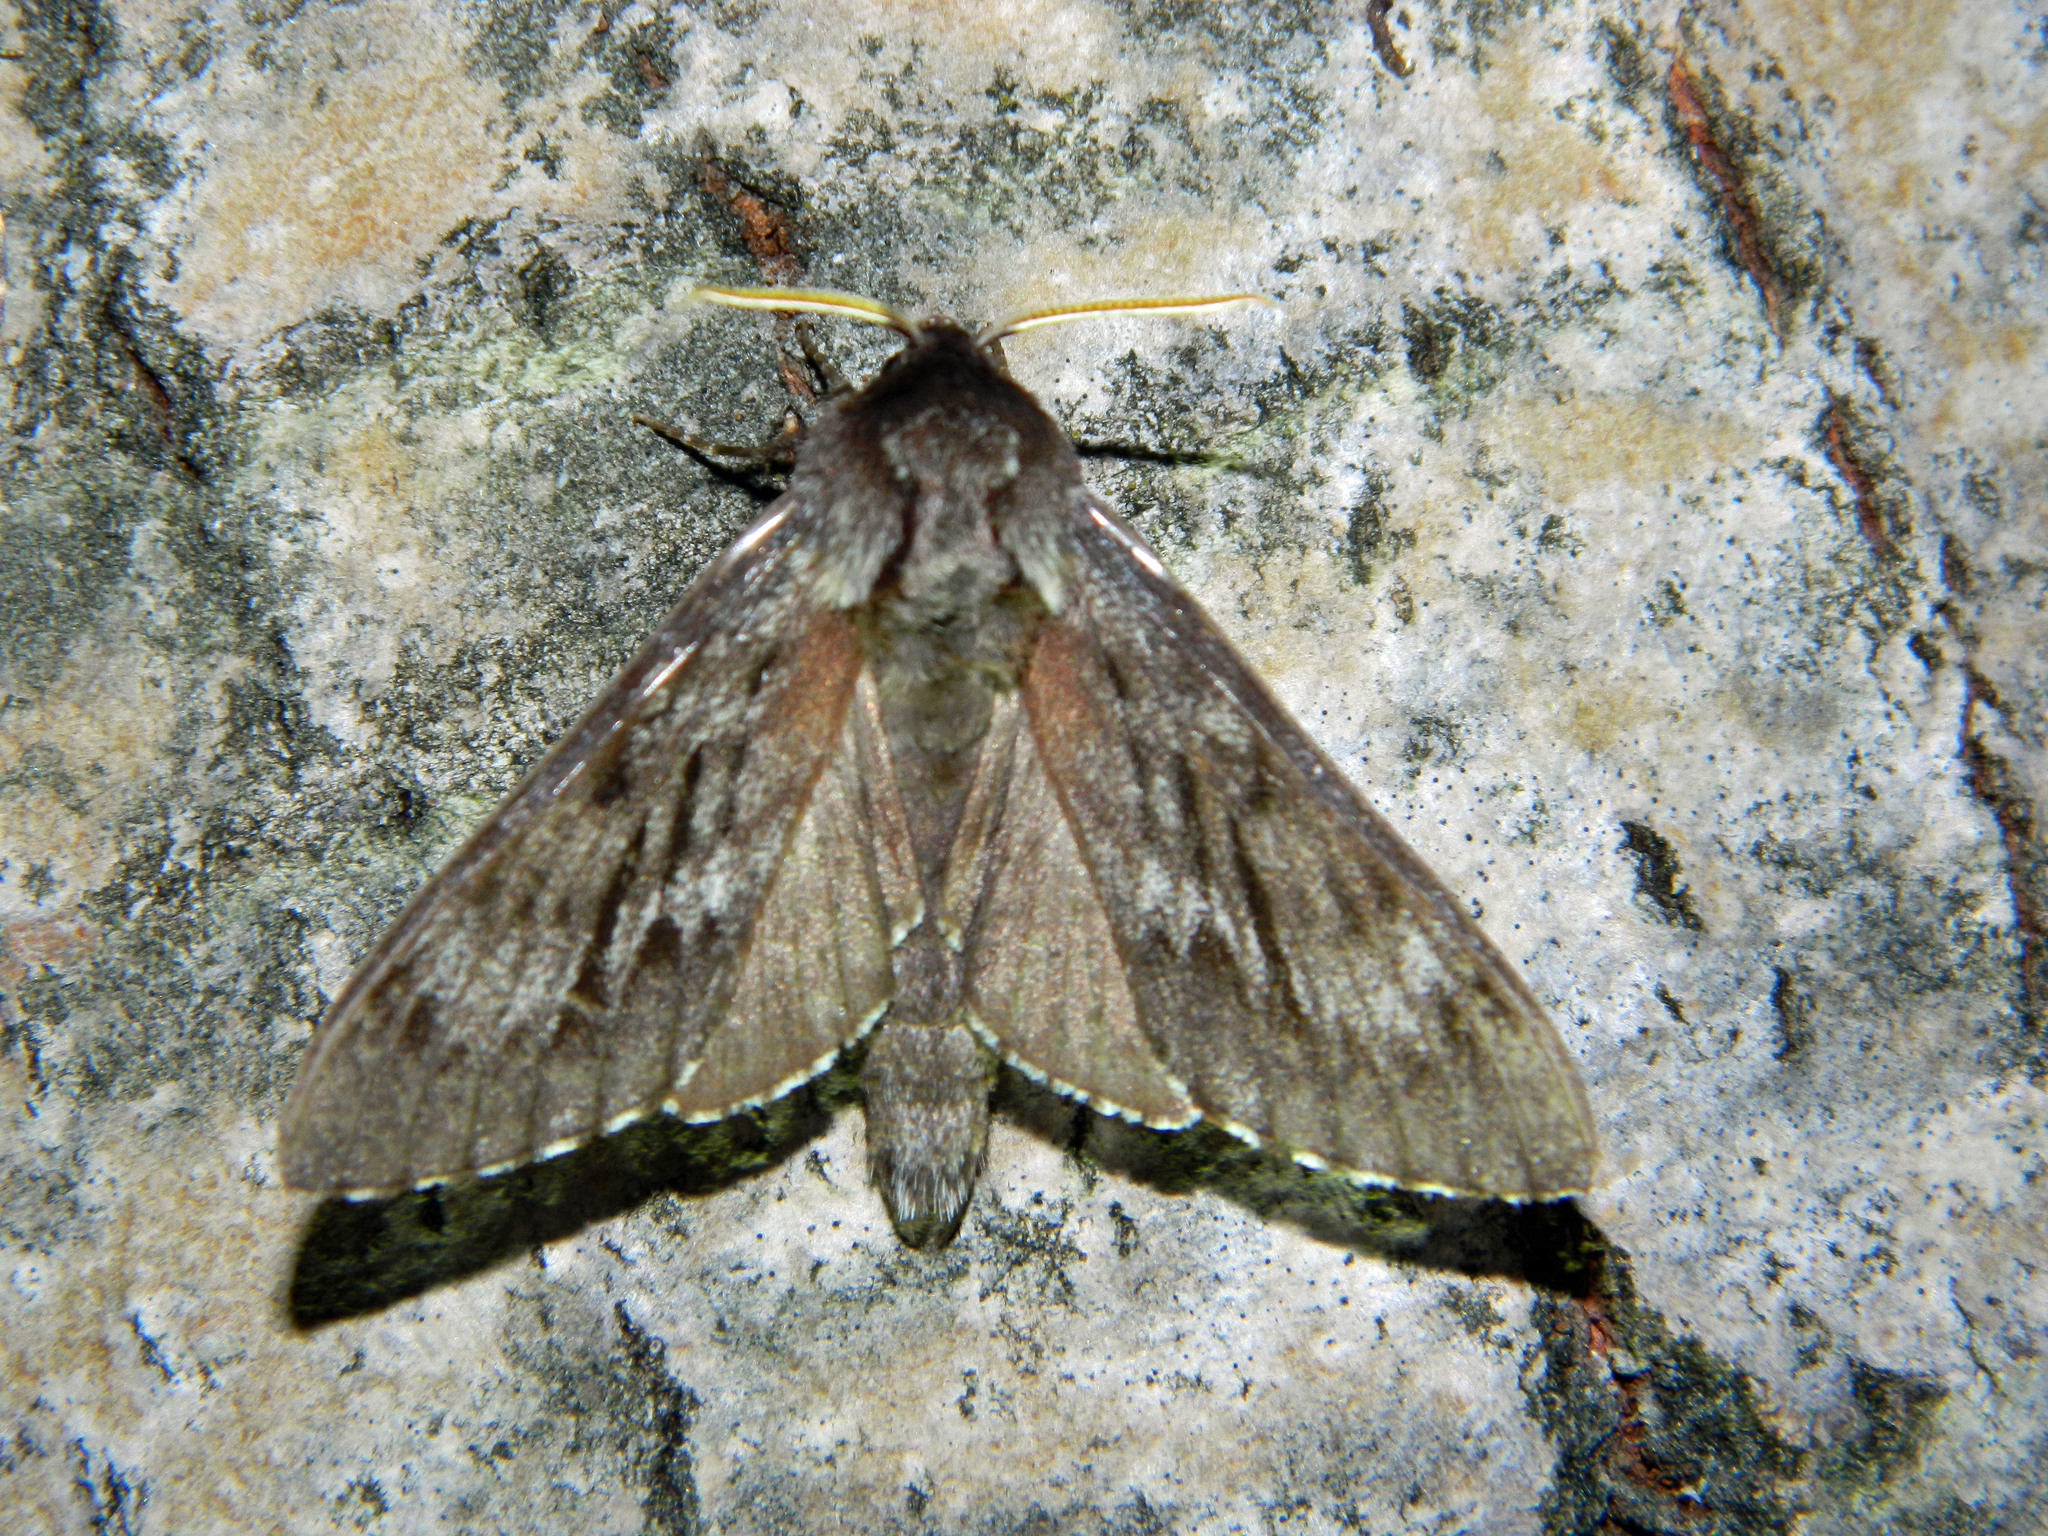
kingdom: Animalia
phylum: Arthropoda
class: Insecta
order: Lepidoptera
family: Sphingidae
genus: Lapara
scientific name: Lapara bombycoides
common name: Northern pine sphinx
